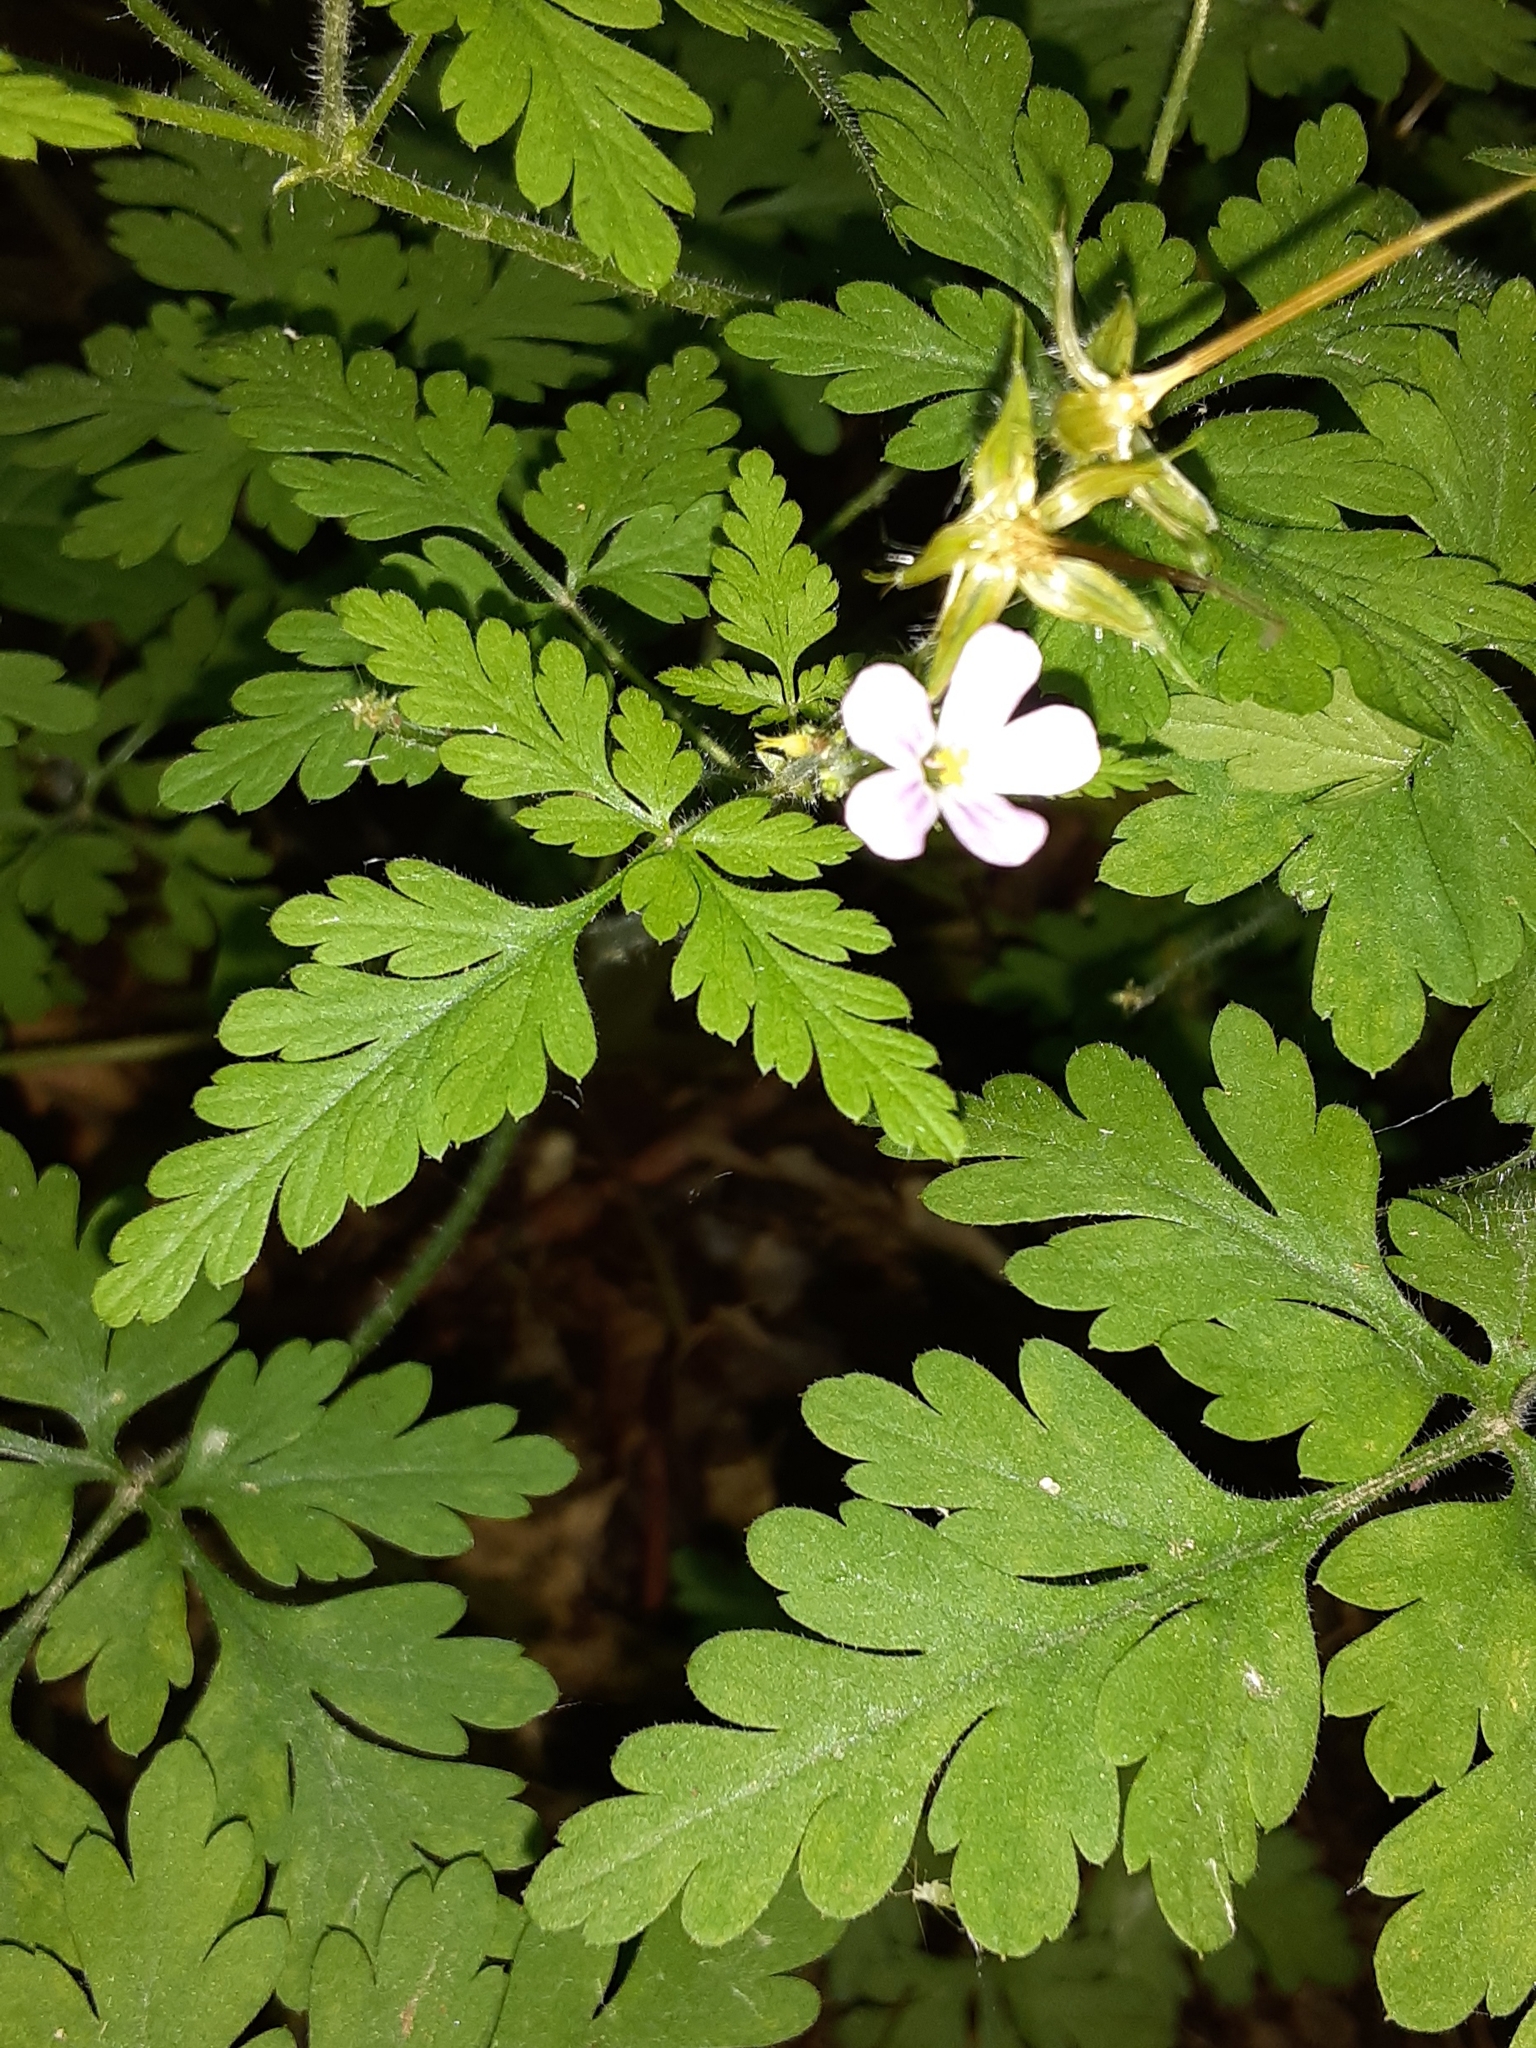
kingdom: Plantae
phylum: Tracheophyta
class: Magnoliopsida
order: Geraniales
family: Geraniaceae
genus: Geranium
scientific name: Geranium robertianum
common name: Herb-robert
